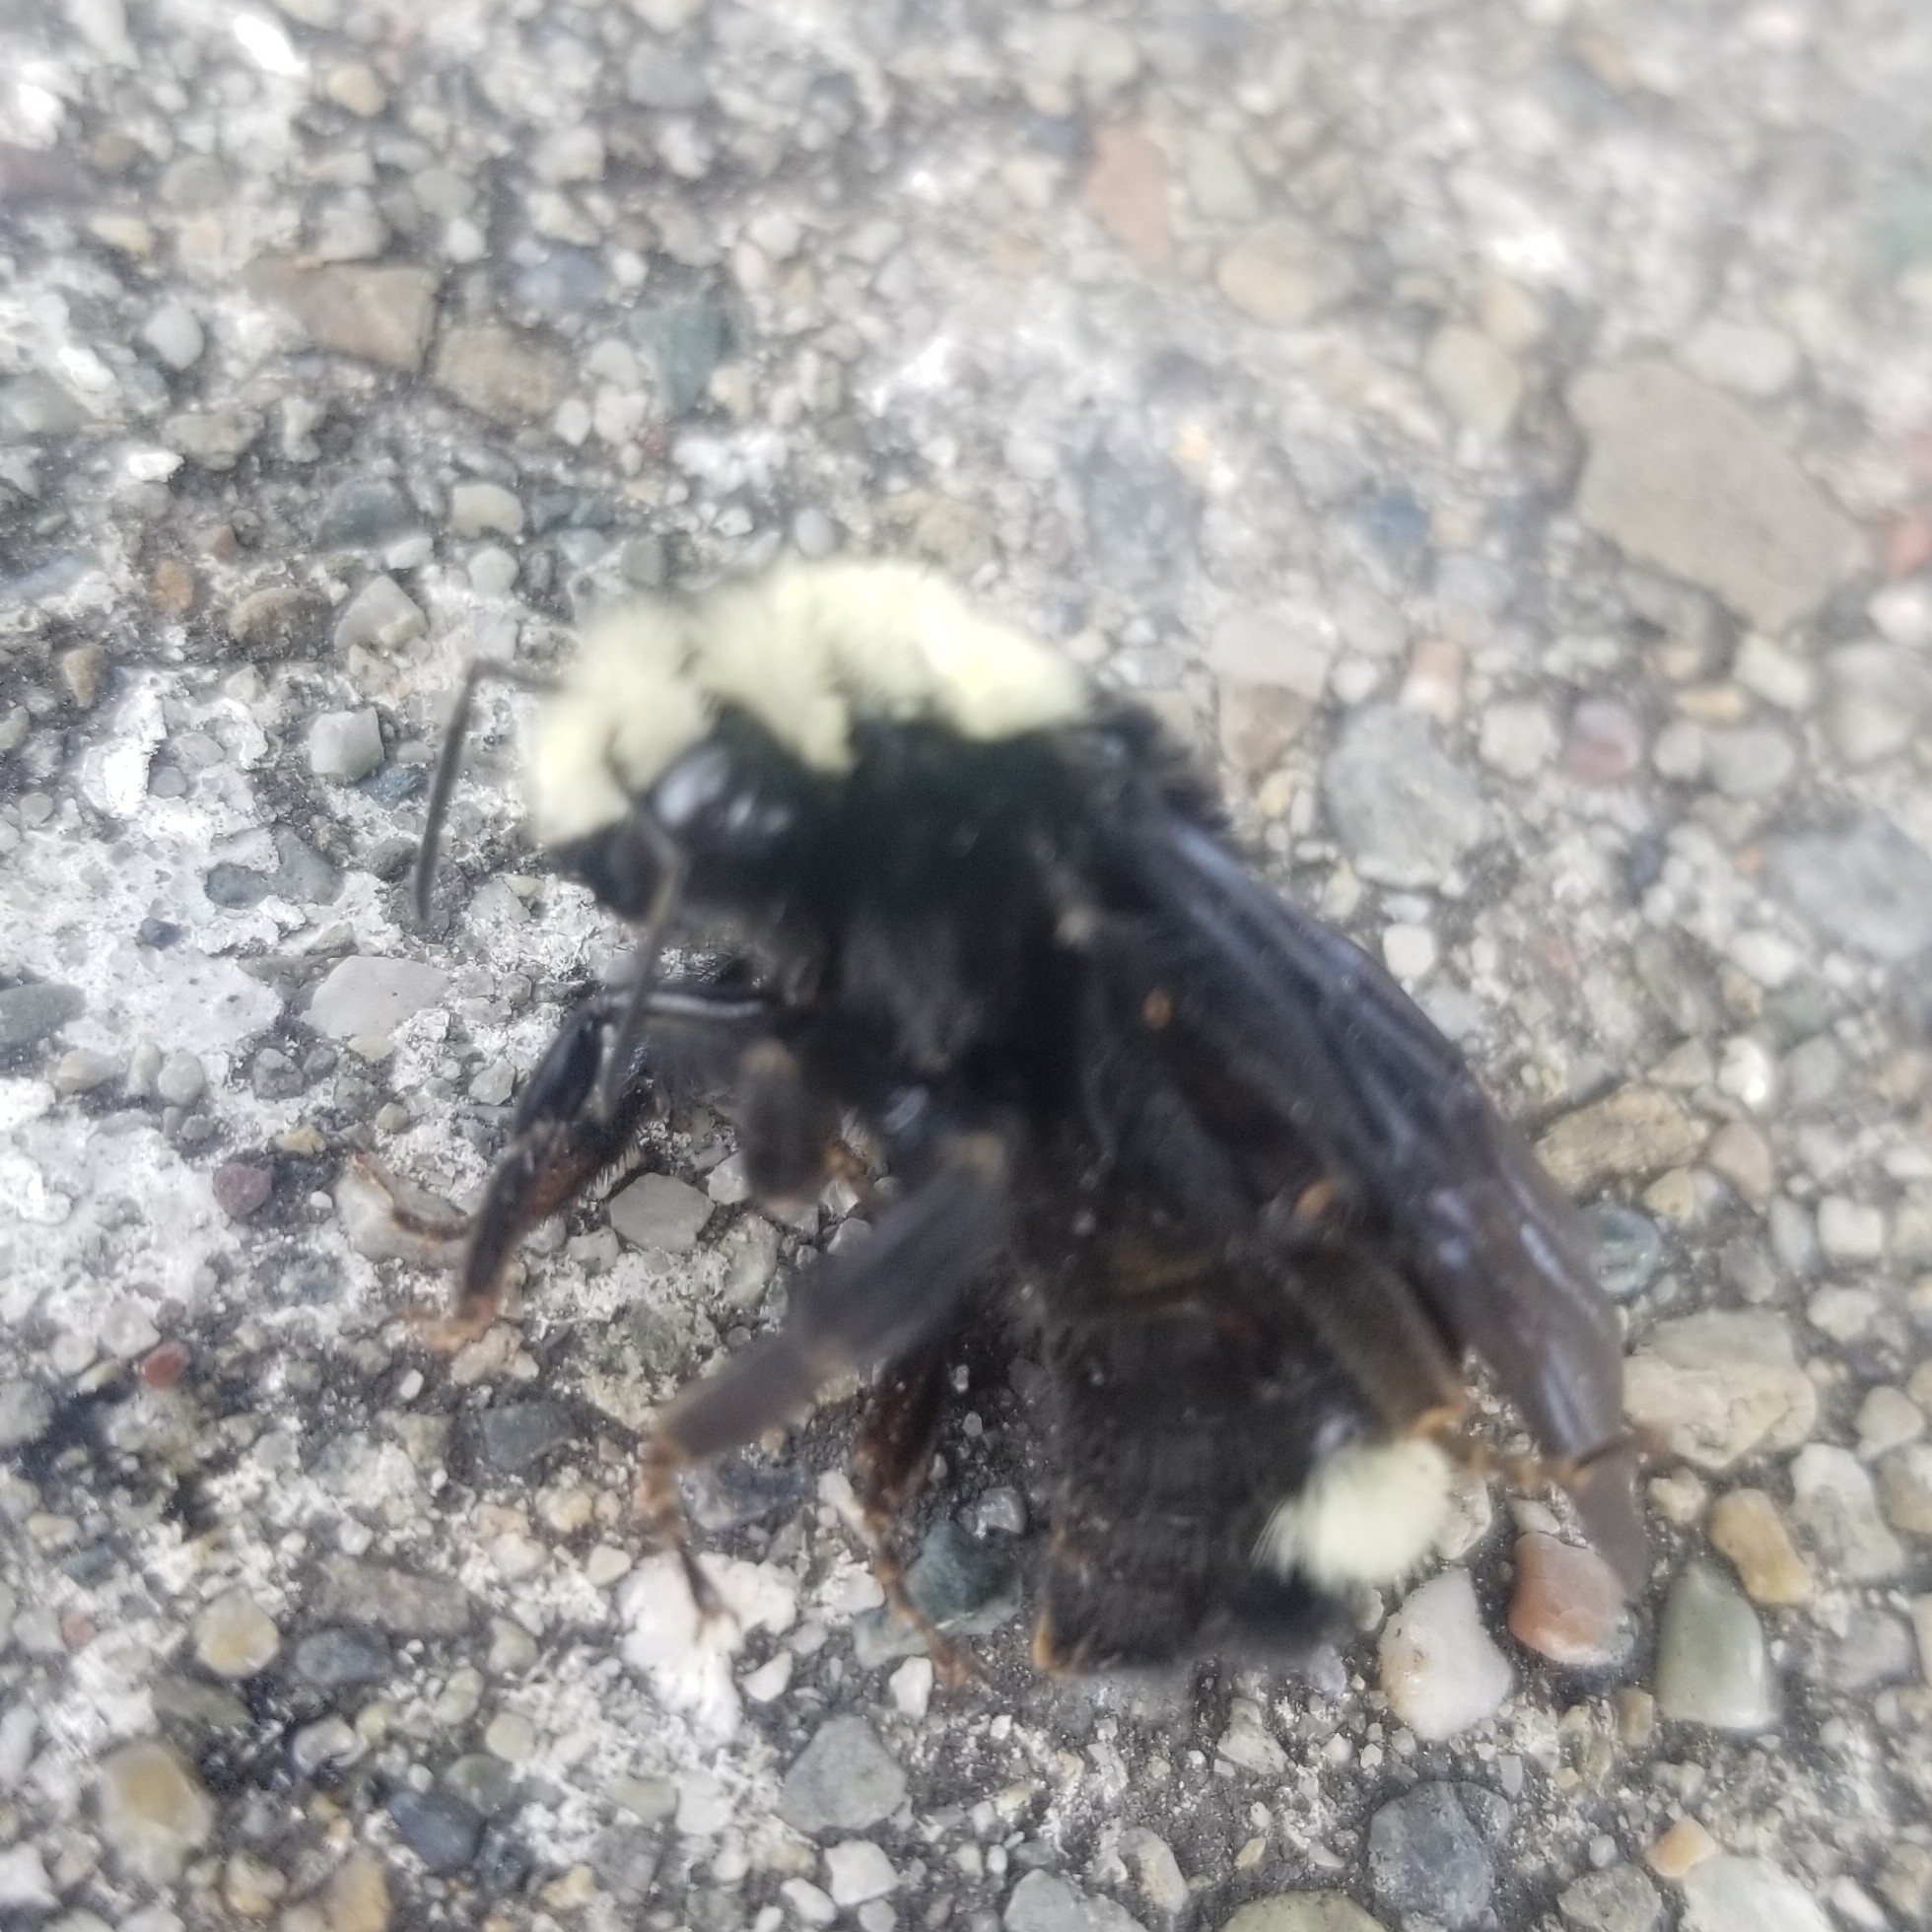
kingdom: Animalia
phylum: Arthropoda
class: Insecta
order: Hymenoptera
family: Apidae
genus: Bombus
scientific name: Bombus vosnesenskii
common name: Vosnesensky bumble bee
